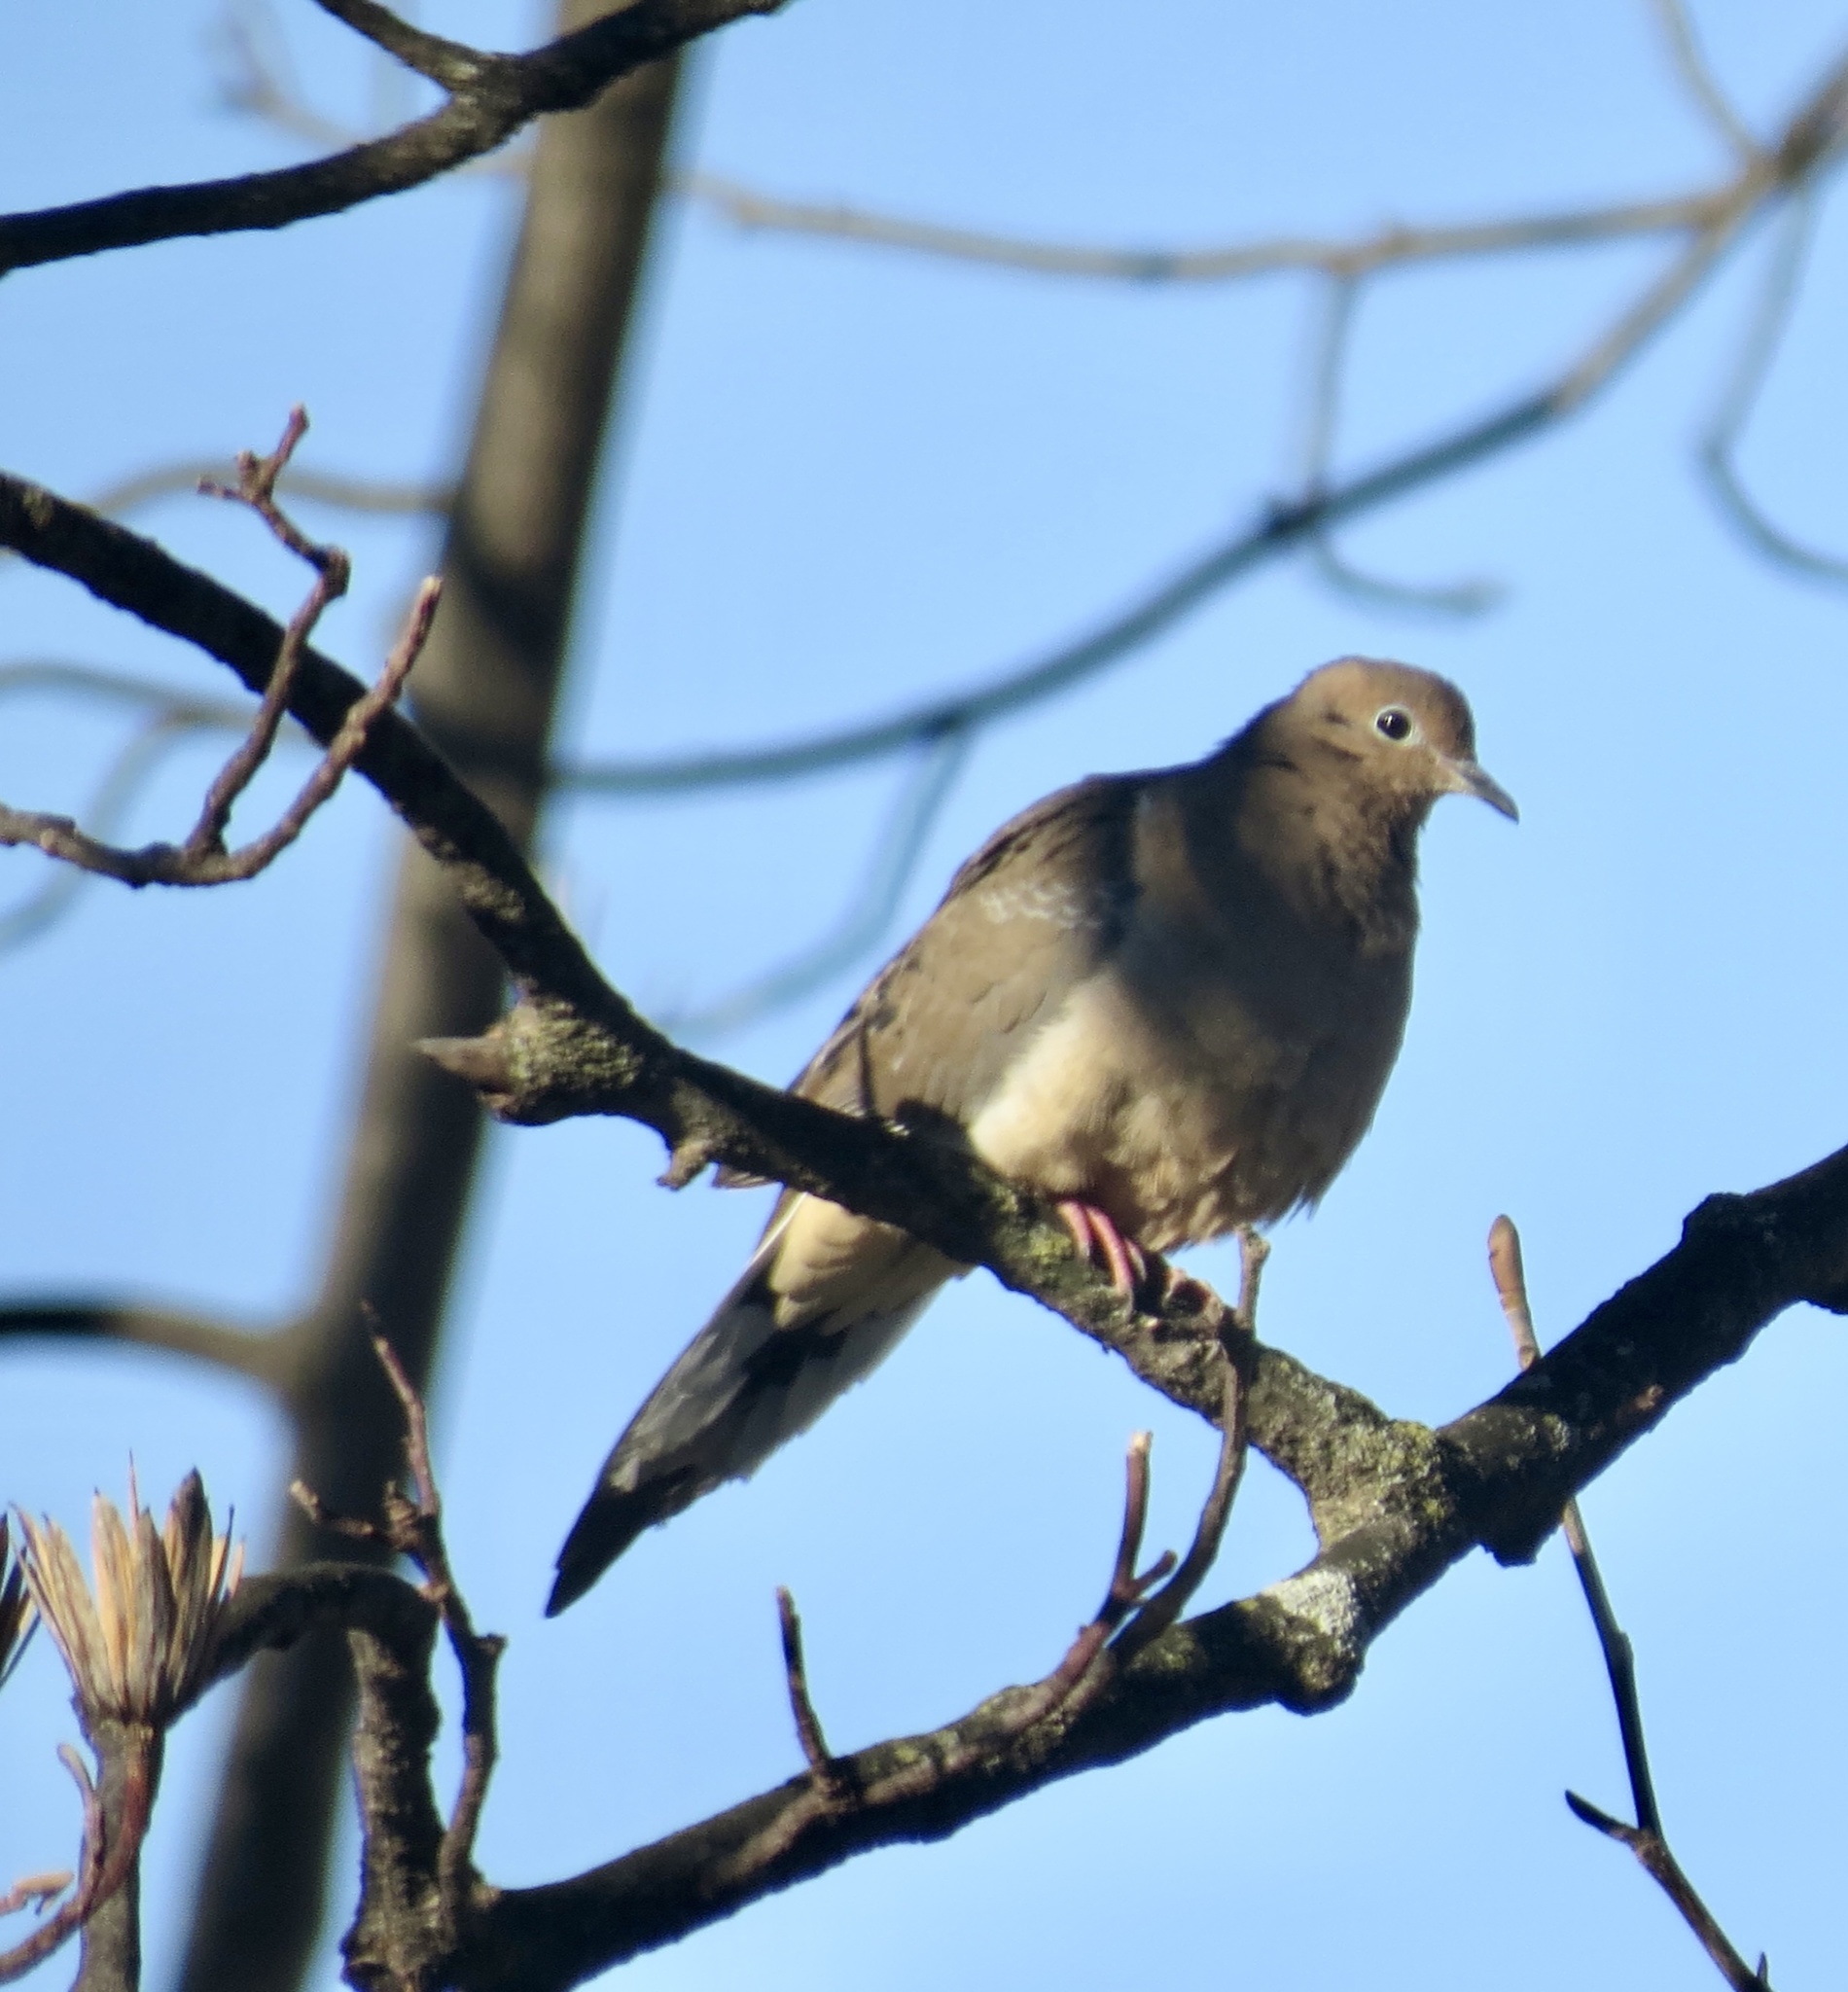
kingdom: Animalia
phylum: Chordata
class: Aves
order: Columbiformes
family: Columbidae
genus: Zenaida
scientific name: Zenaida macroura
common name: Mourning dove
